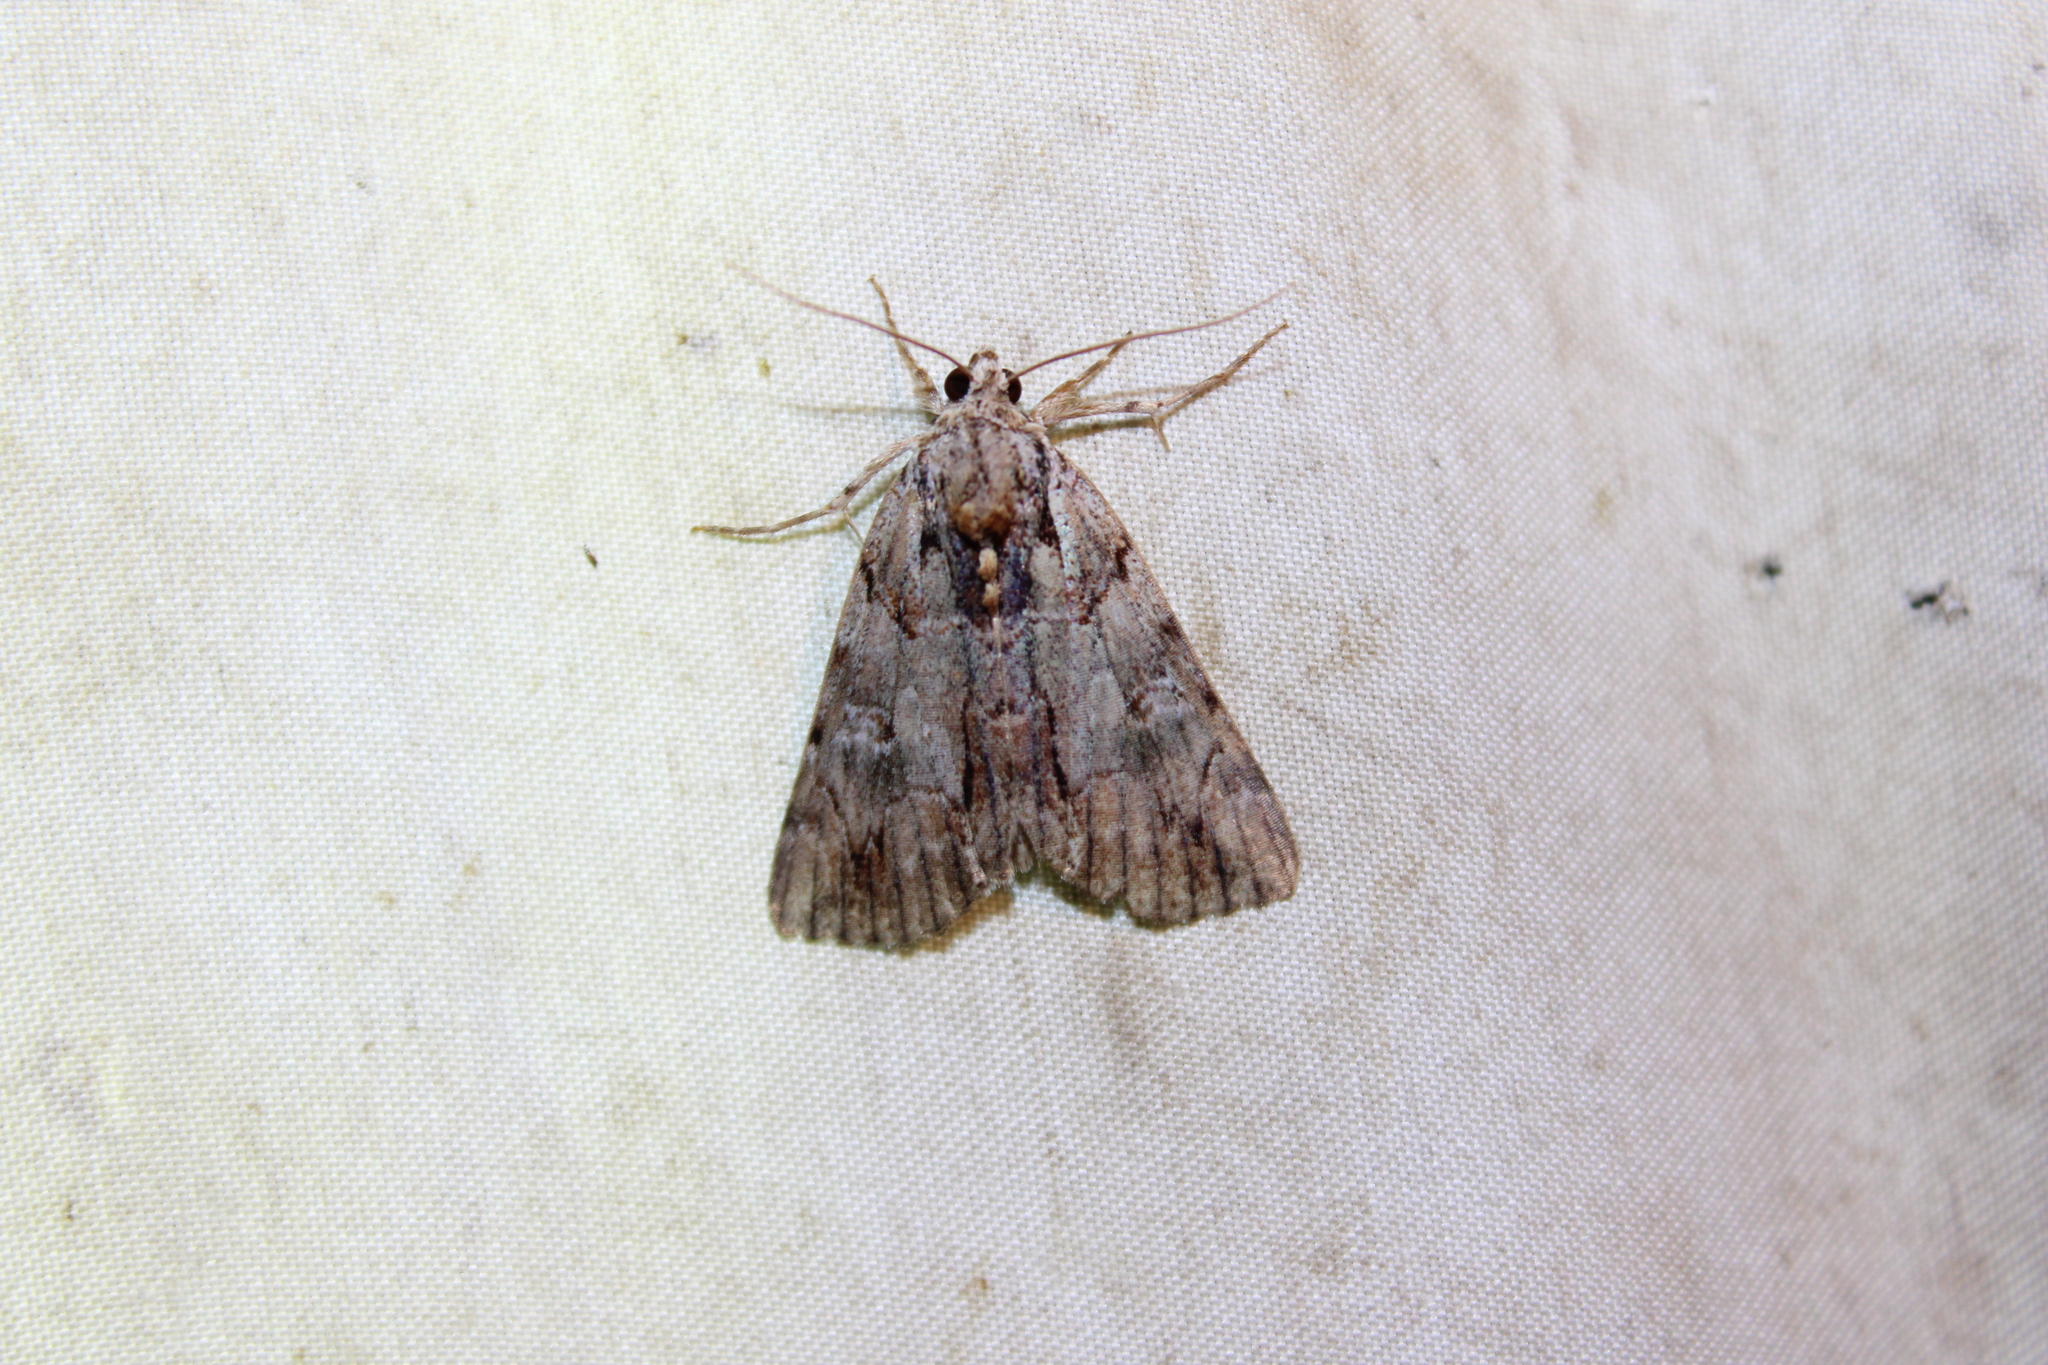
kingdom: Animalia
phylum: Arthropoda
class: Insecta
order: Lepidoptera
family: Erebidae
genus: Catocala
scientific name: Catocala praeclara
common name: Praeclara underwing
